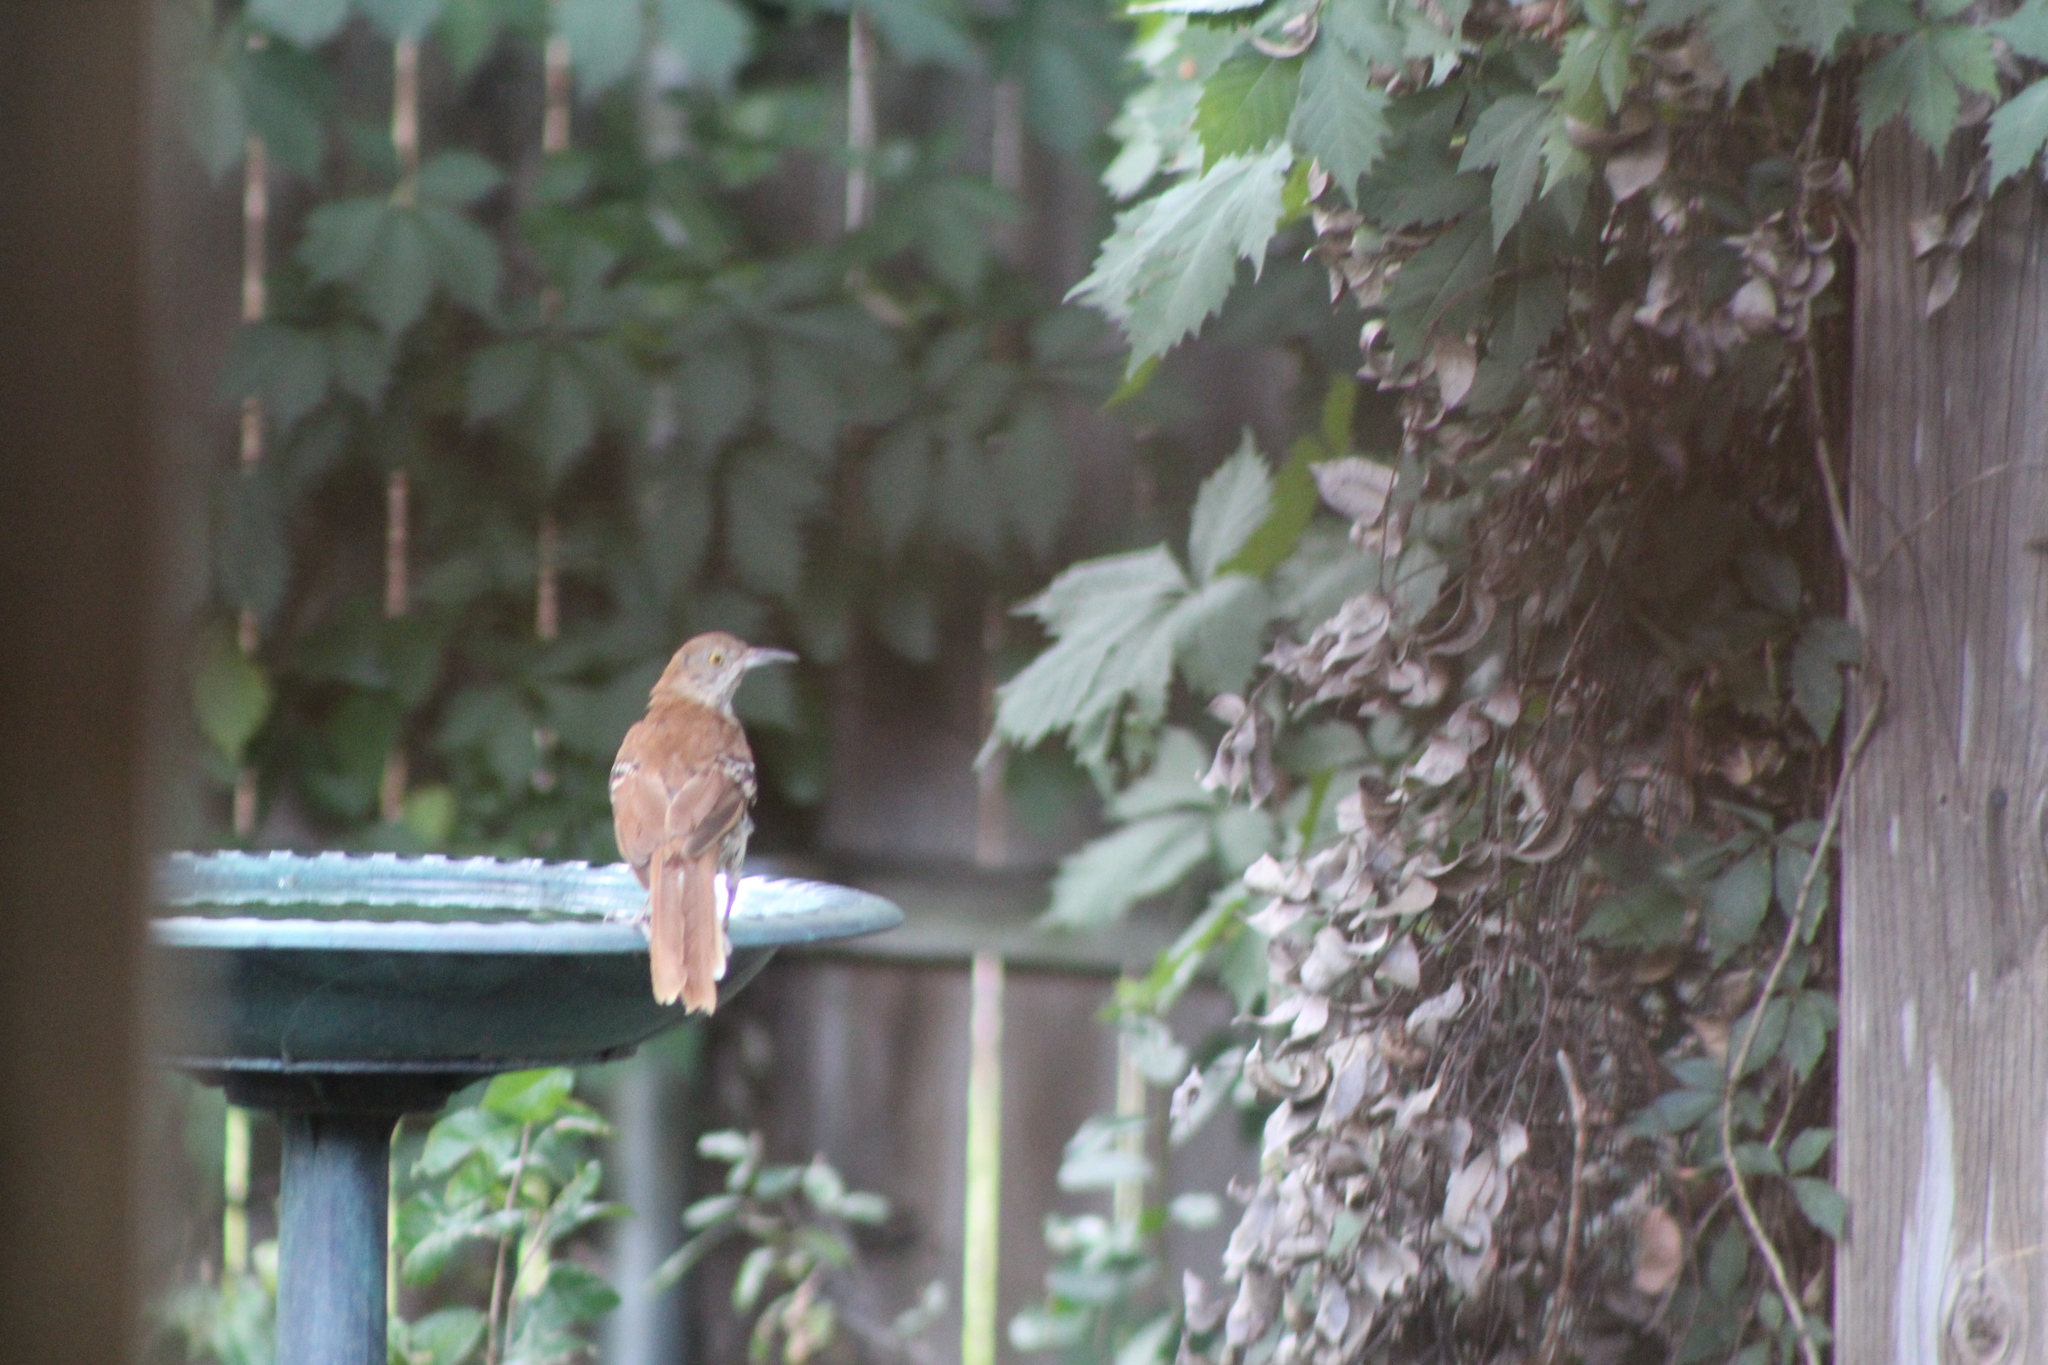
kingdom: Animalia
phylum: Chordata
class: Aves
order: Passeriformes
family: Mimidae
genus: Toxostoma
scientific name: Toxostoma rufum
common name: Brown thrasher
